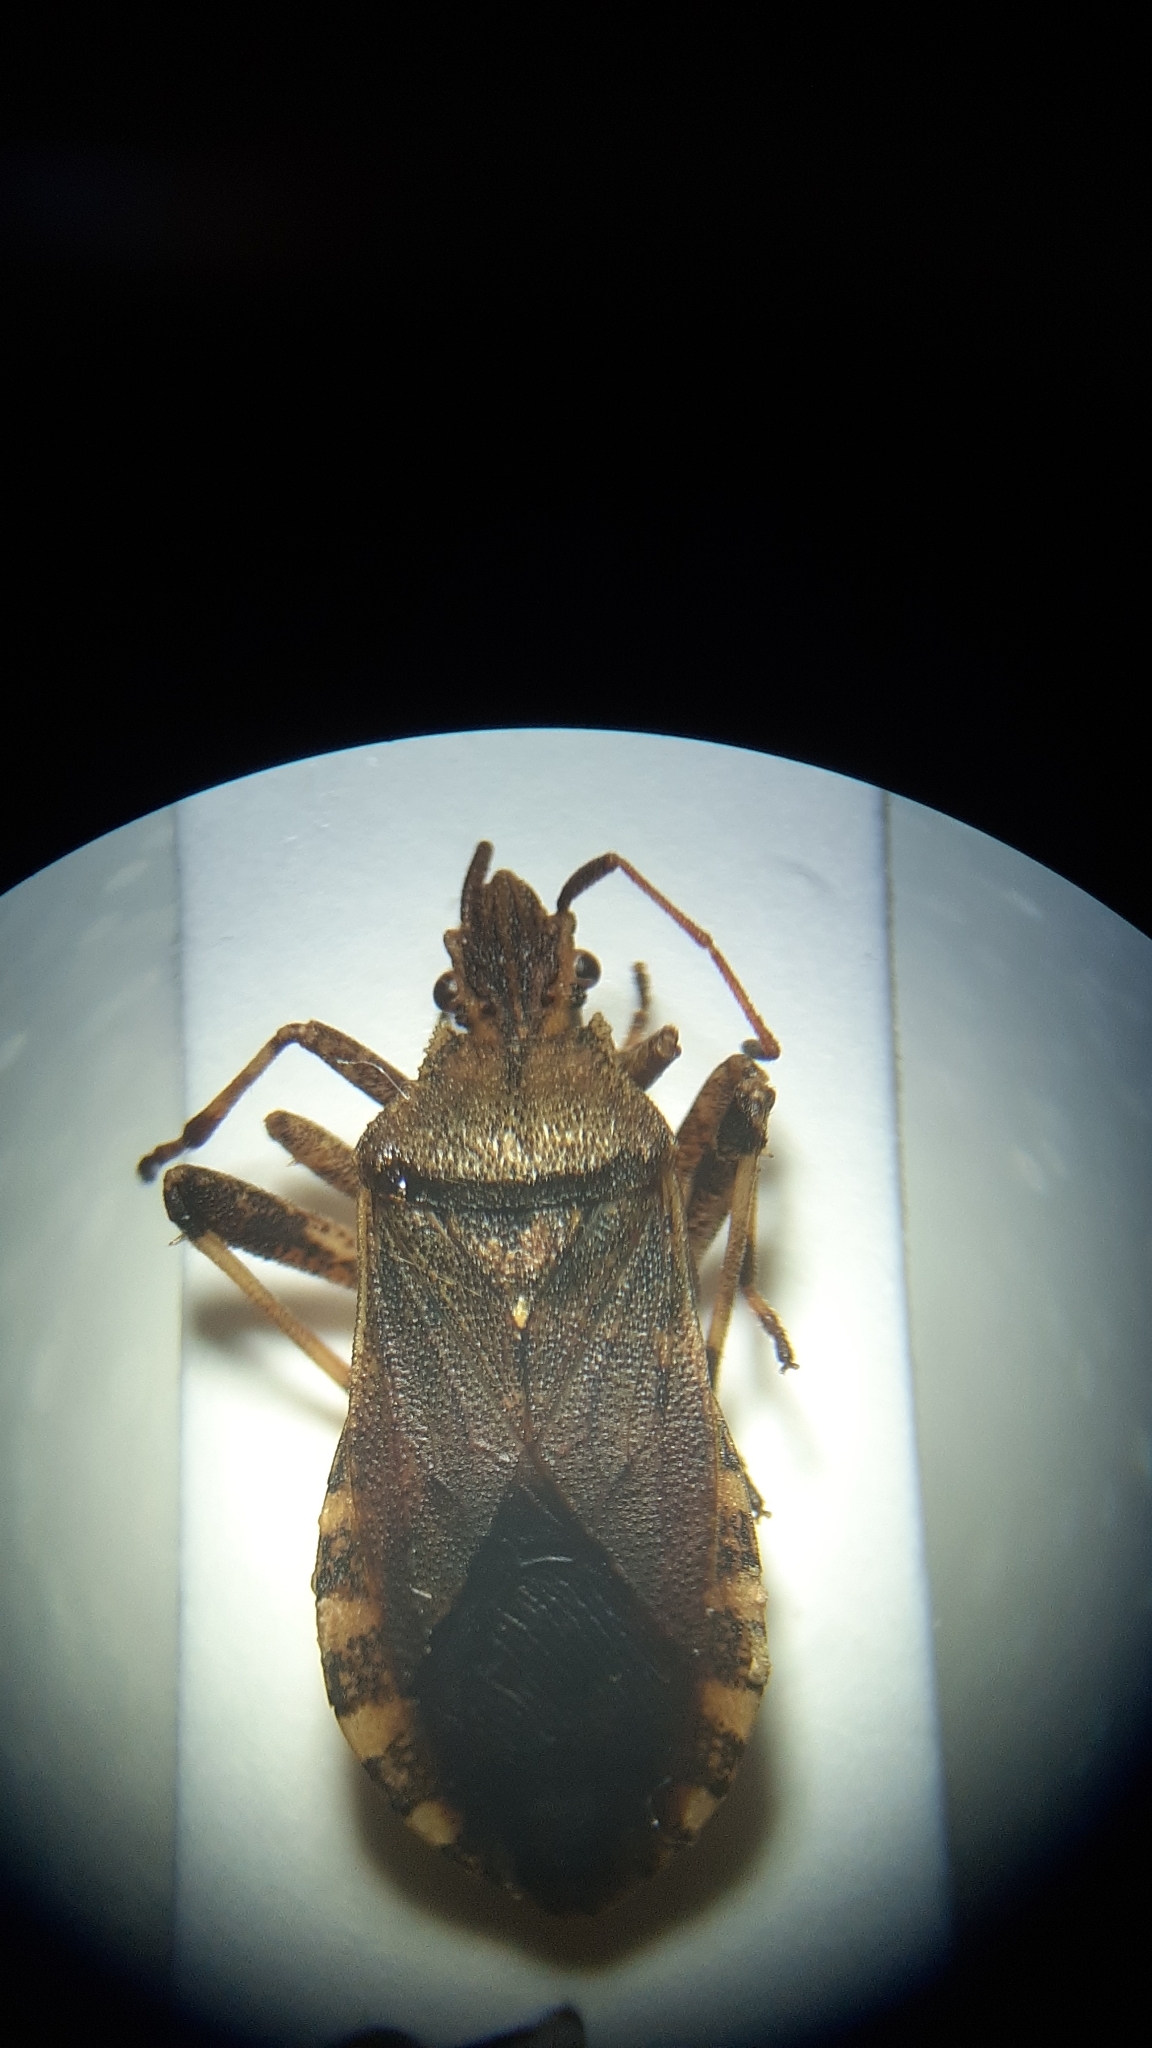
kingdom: Animalia
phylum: Arthropoda
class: Insecta
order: Hemiptera
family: Coreidae
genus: Ceraleptus
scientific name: Ceraleptus gracilicornis
